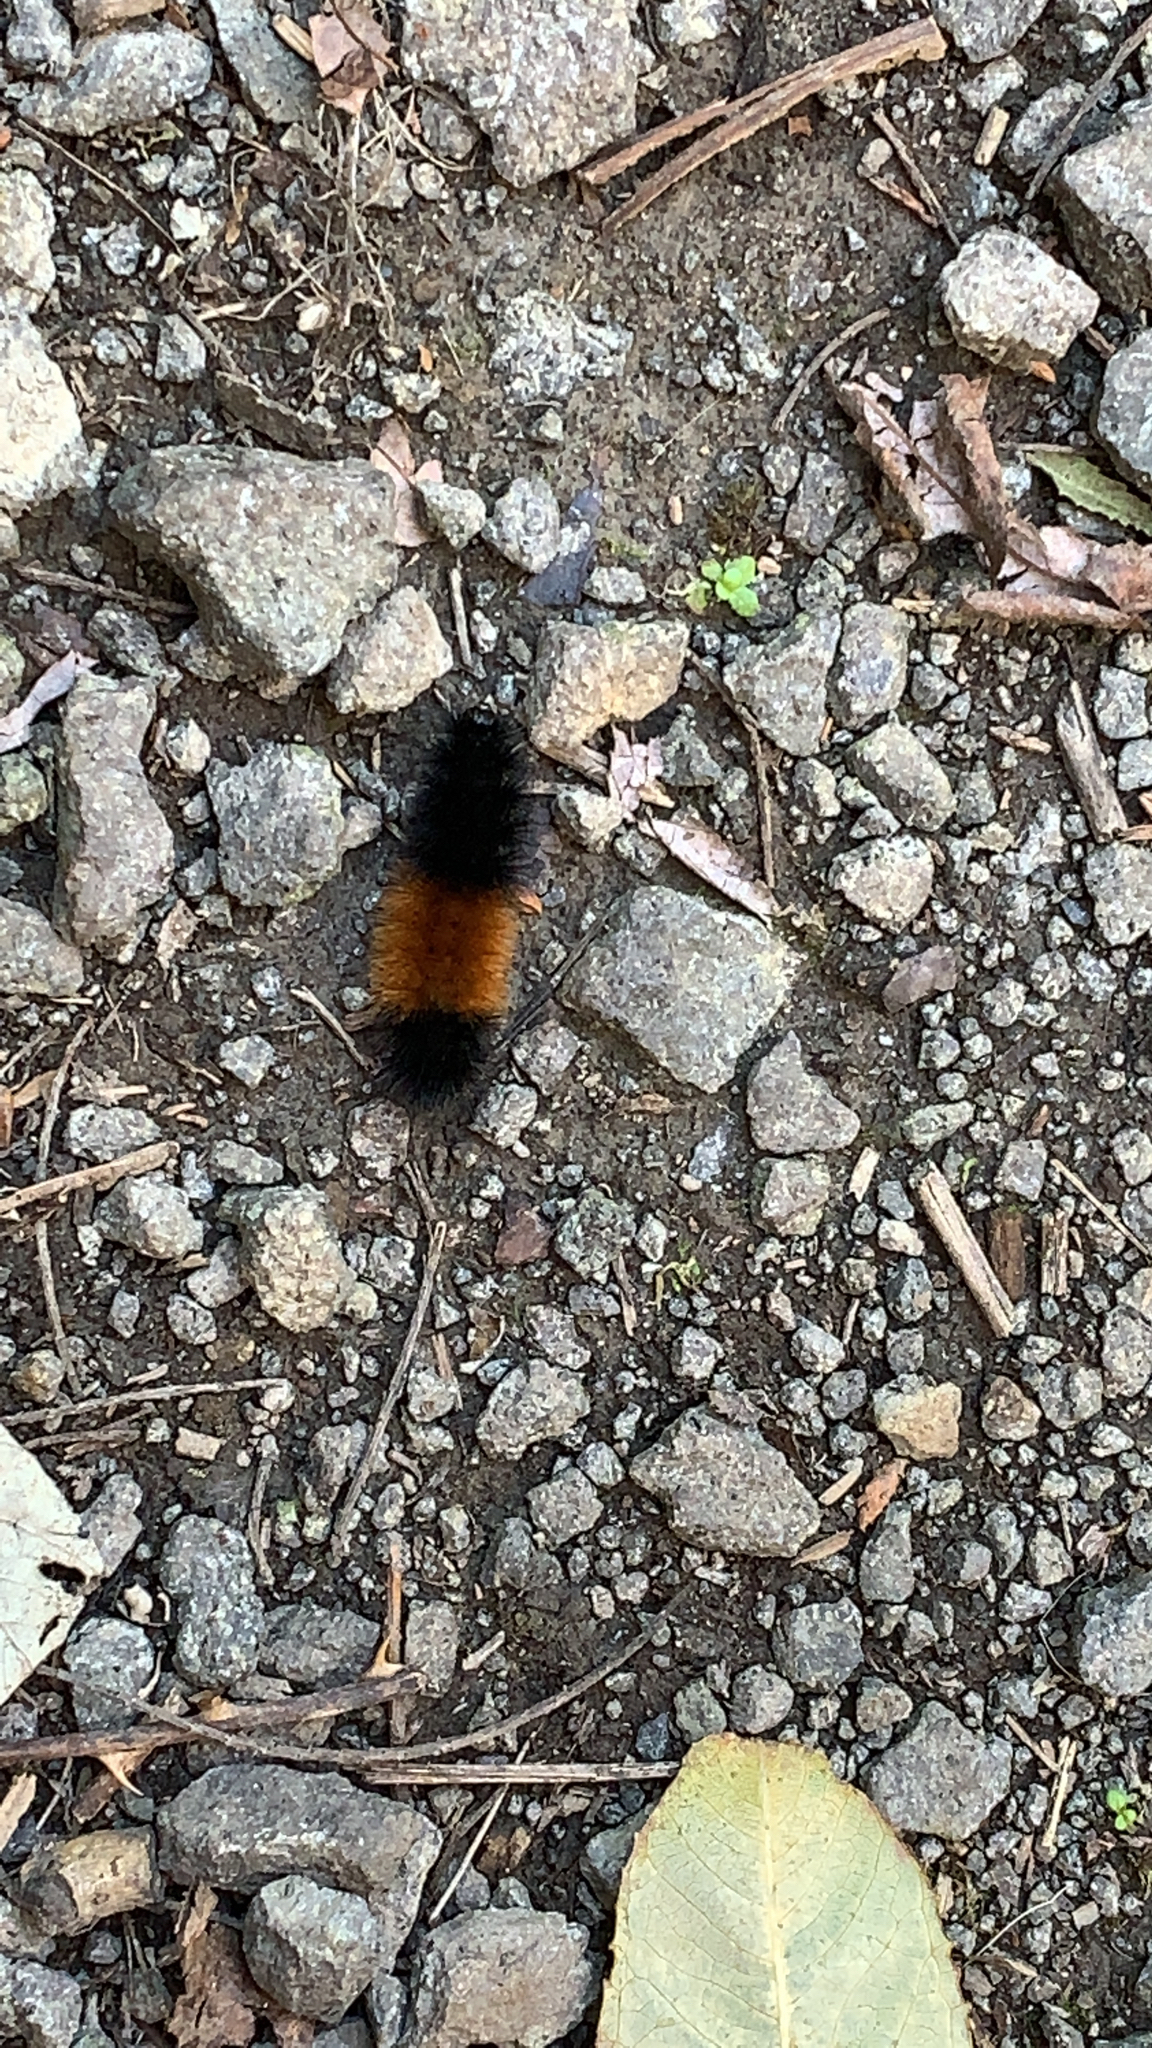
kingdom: Animalia
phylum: Arthropoda
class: Insecta
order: Lepidoptera
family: Erebidae
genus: Pyrrharctia
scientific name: Pyrrharctia isabella
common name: Isabella tiger moth
